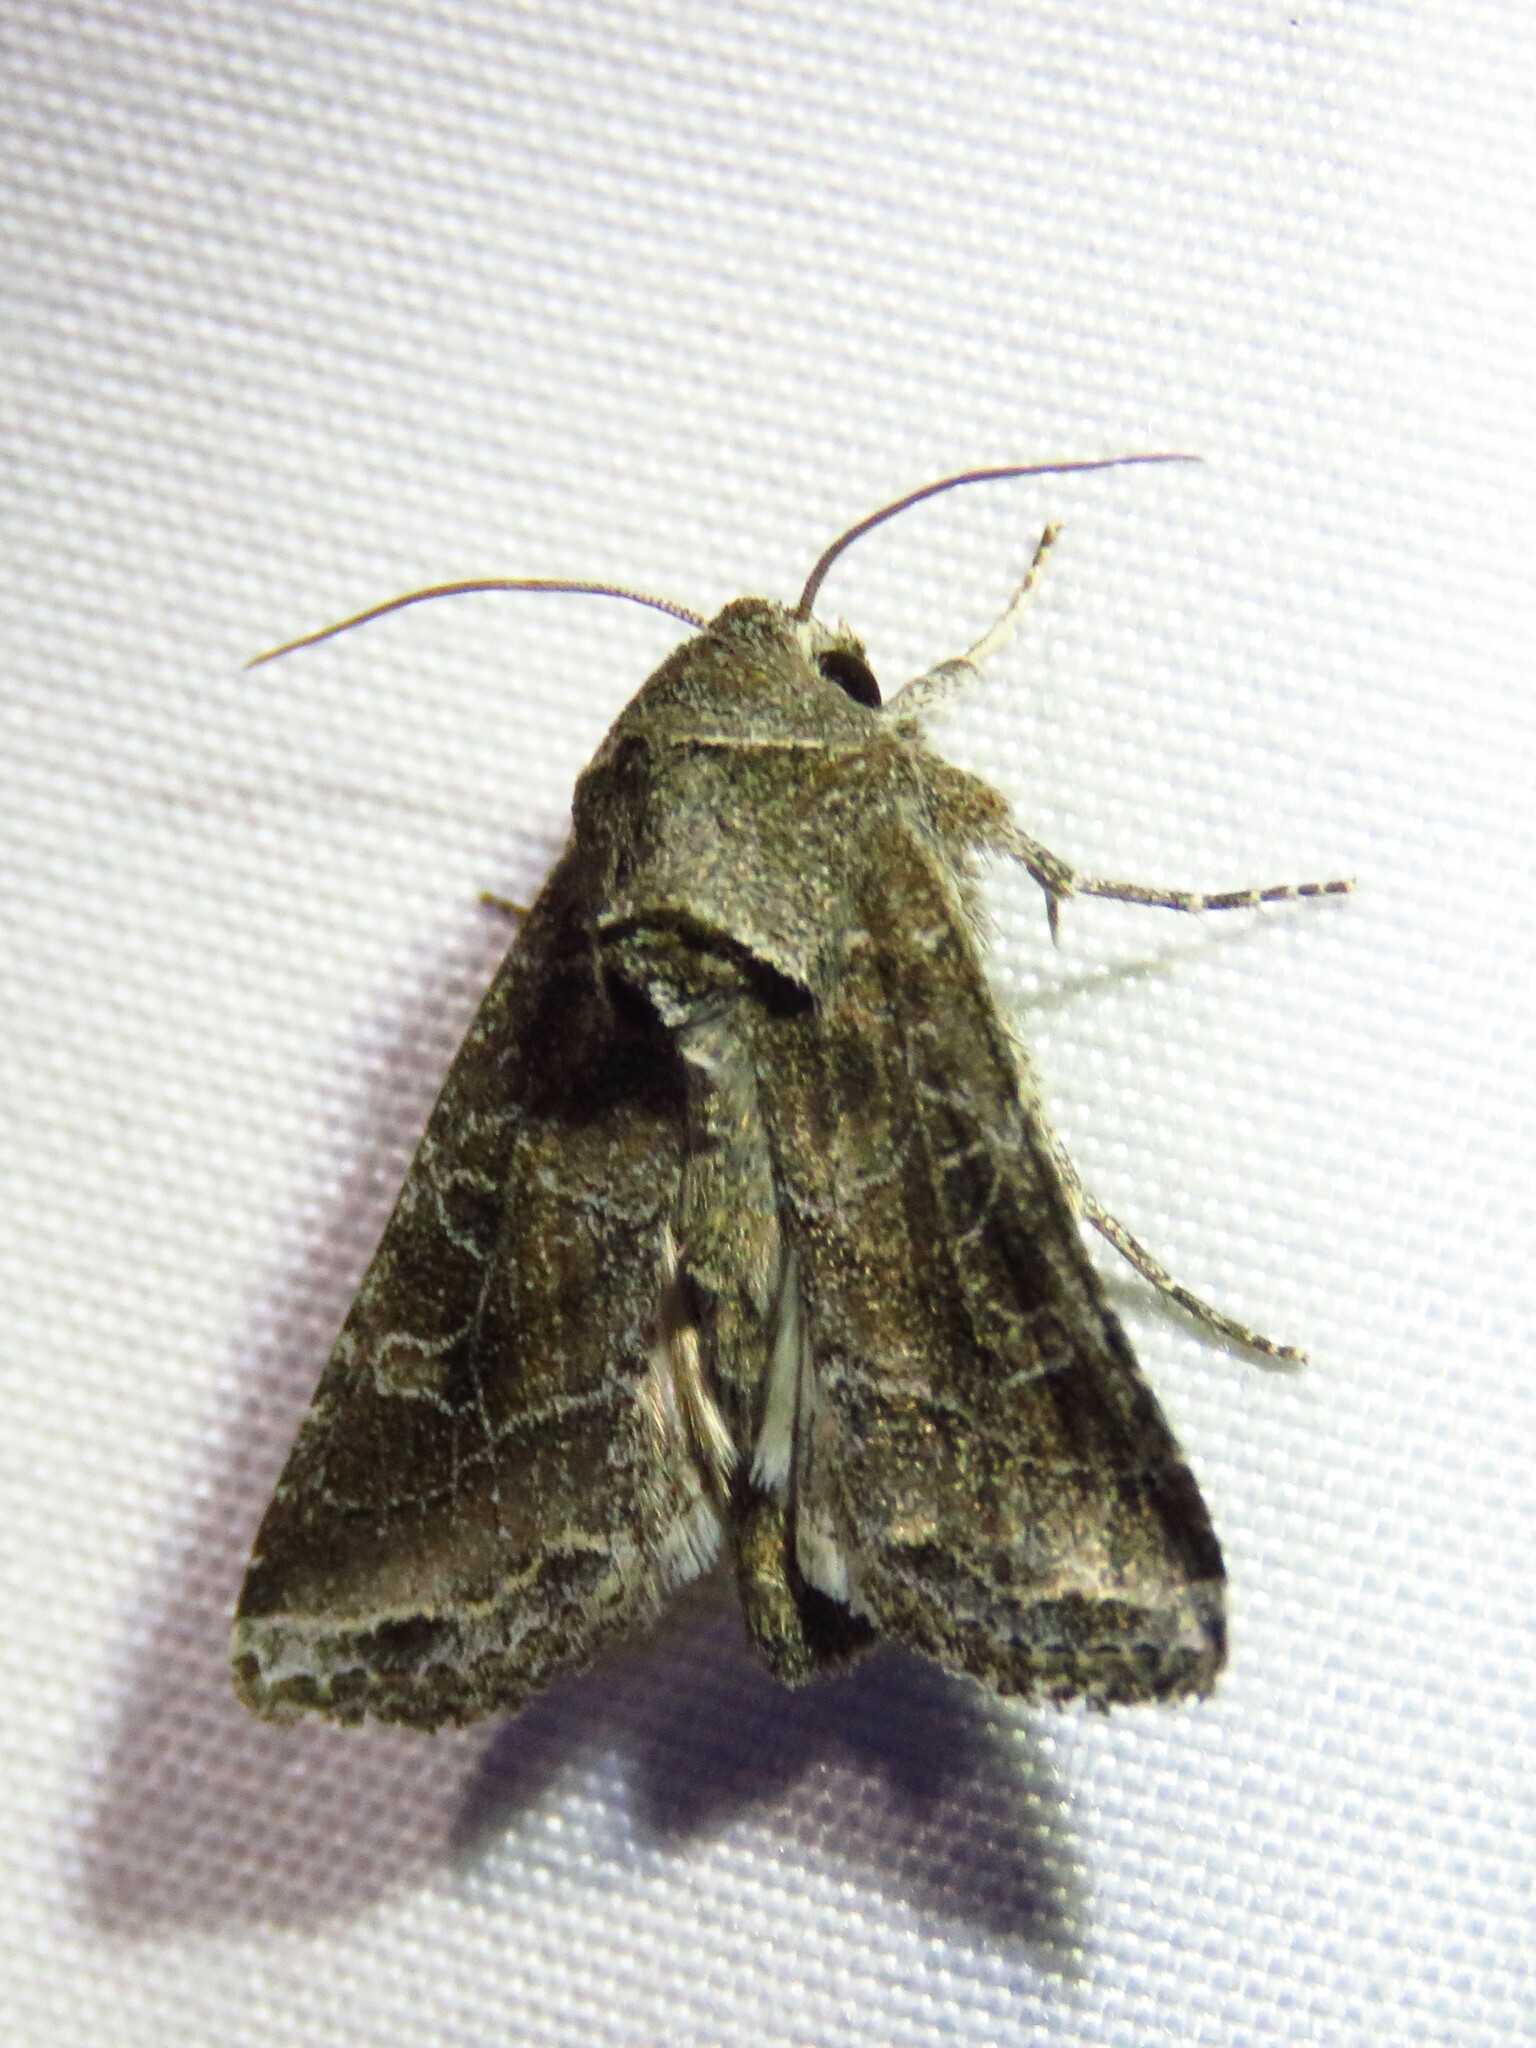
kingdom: Animalia
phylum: Arthropoda
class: Insecta
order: Lepidoptera
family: Noctuidae
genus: Lacinipolia
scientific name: Lacinipolia erecta
